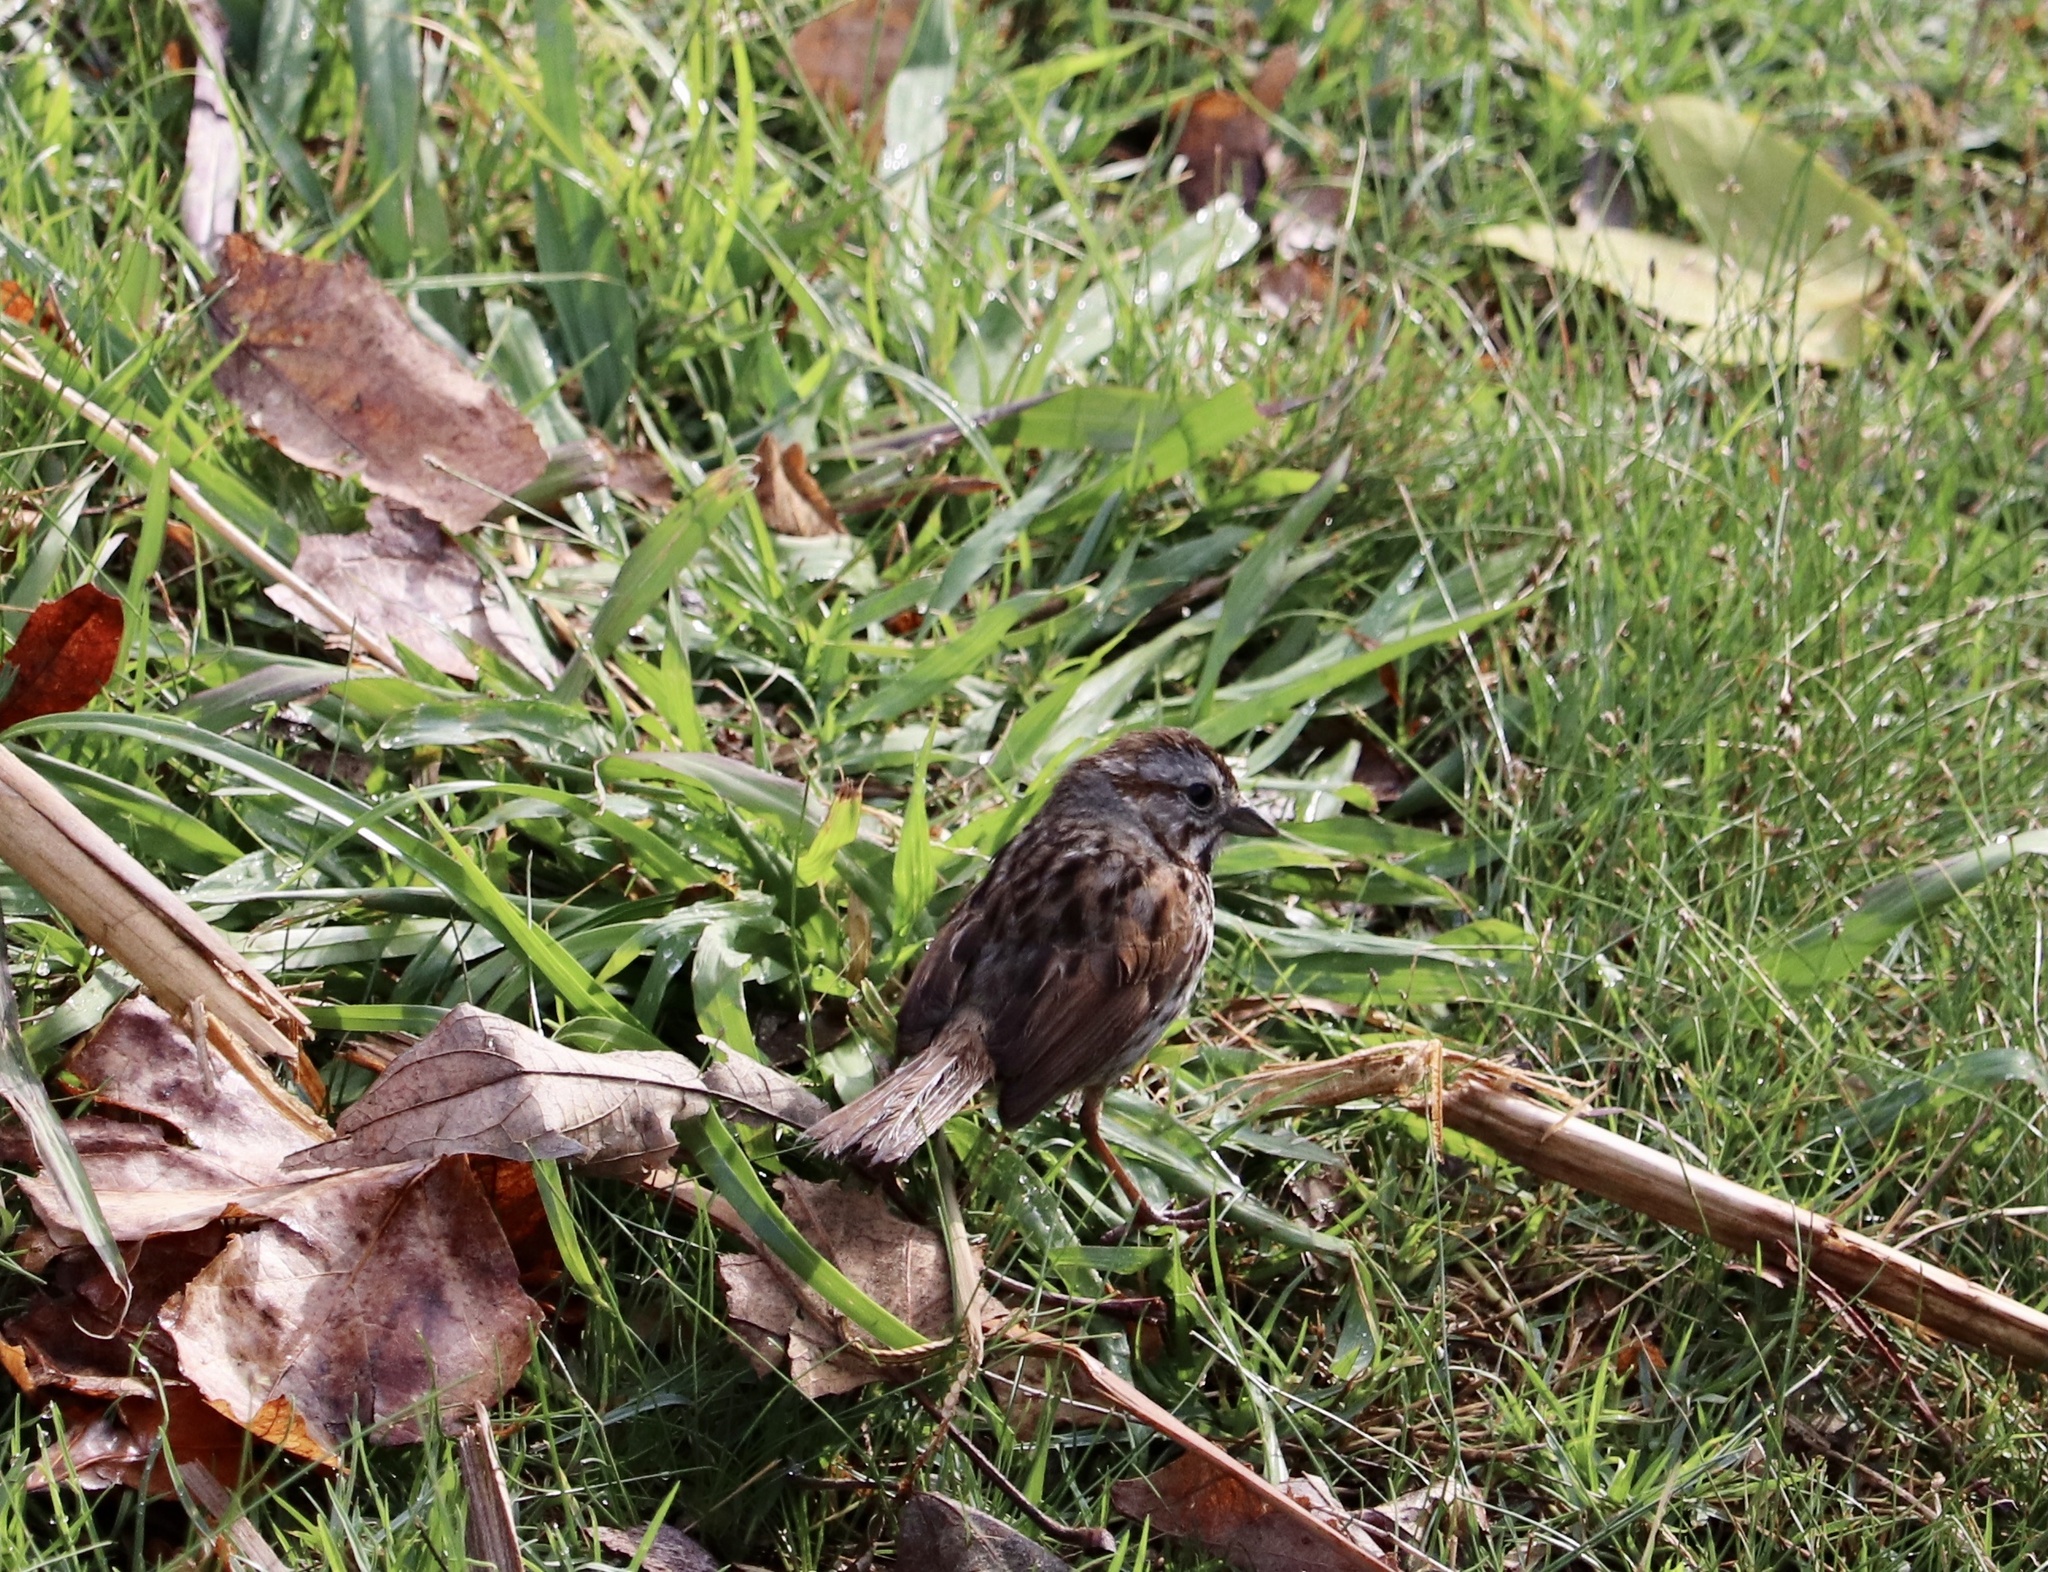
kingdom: Animalia
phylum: Chordata
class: Aves
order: Passeriformes
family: Passerellidae
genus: Melospiza
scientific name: Melospiza melodia
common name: Song sparrow
